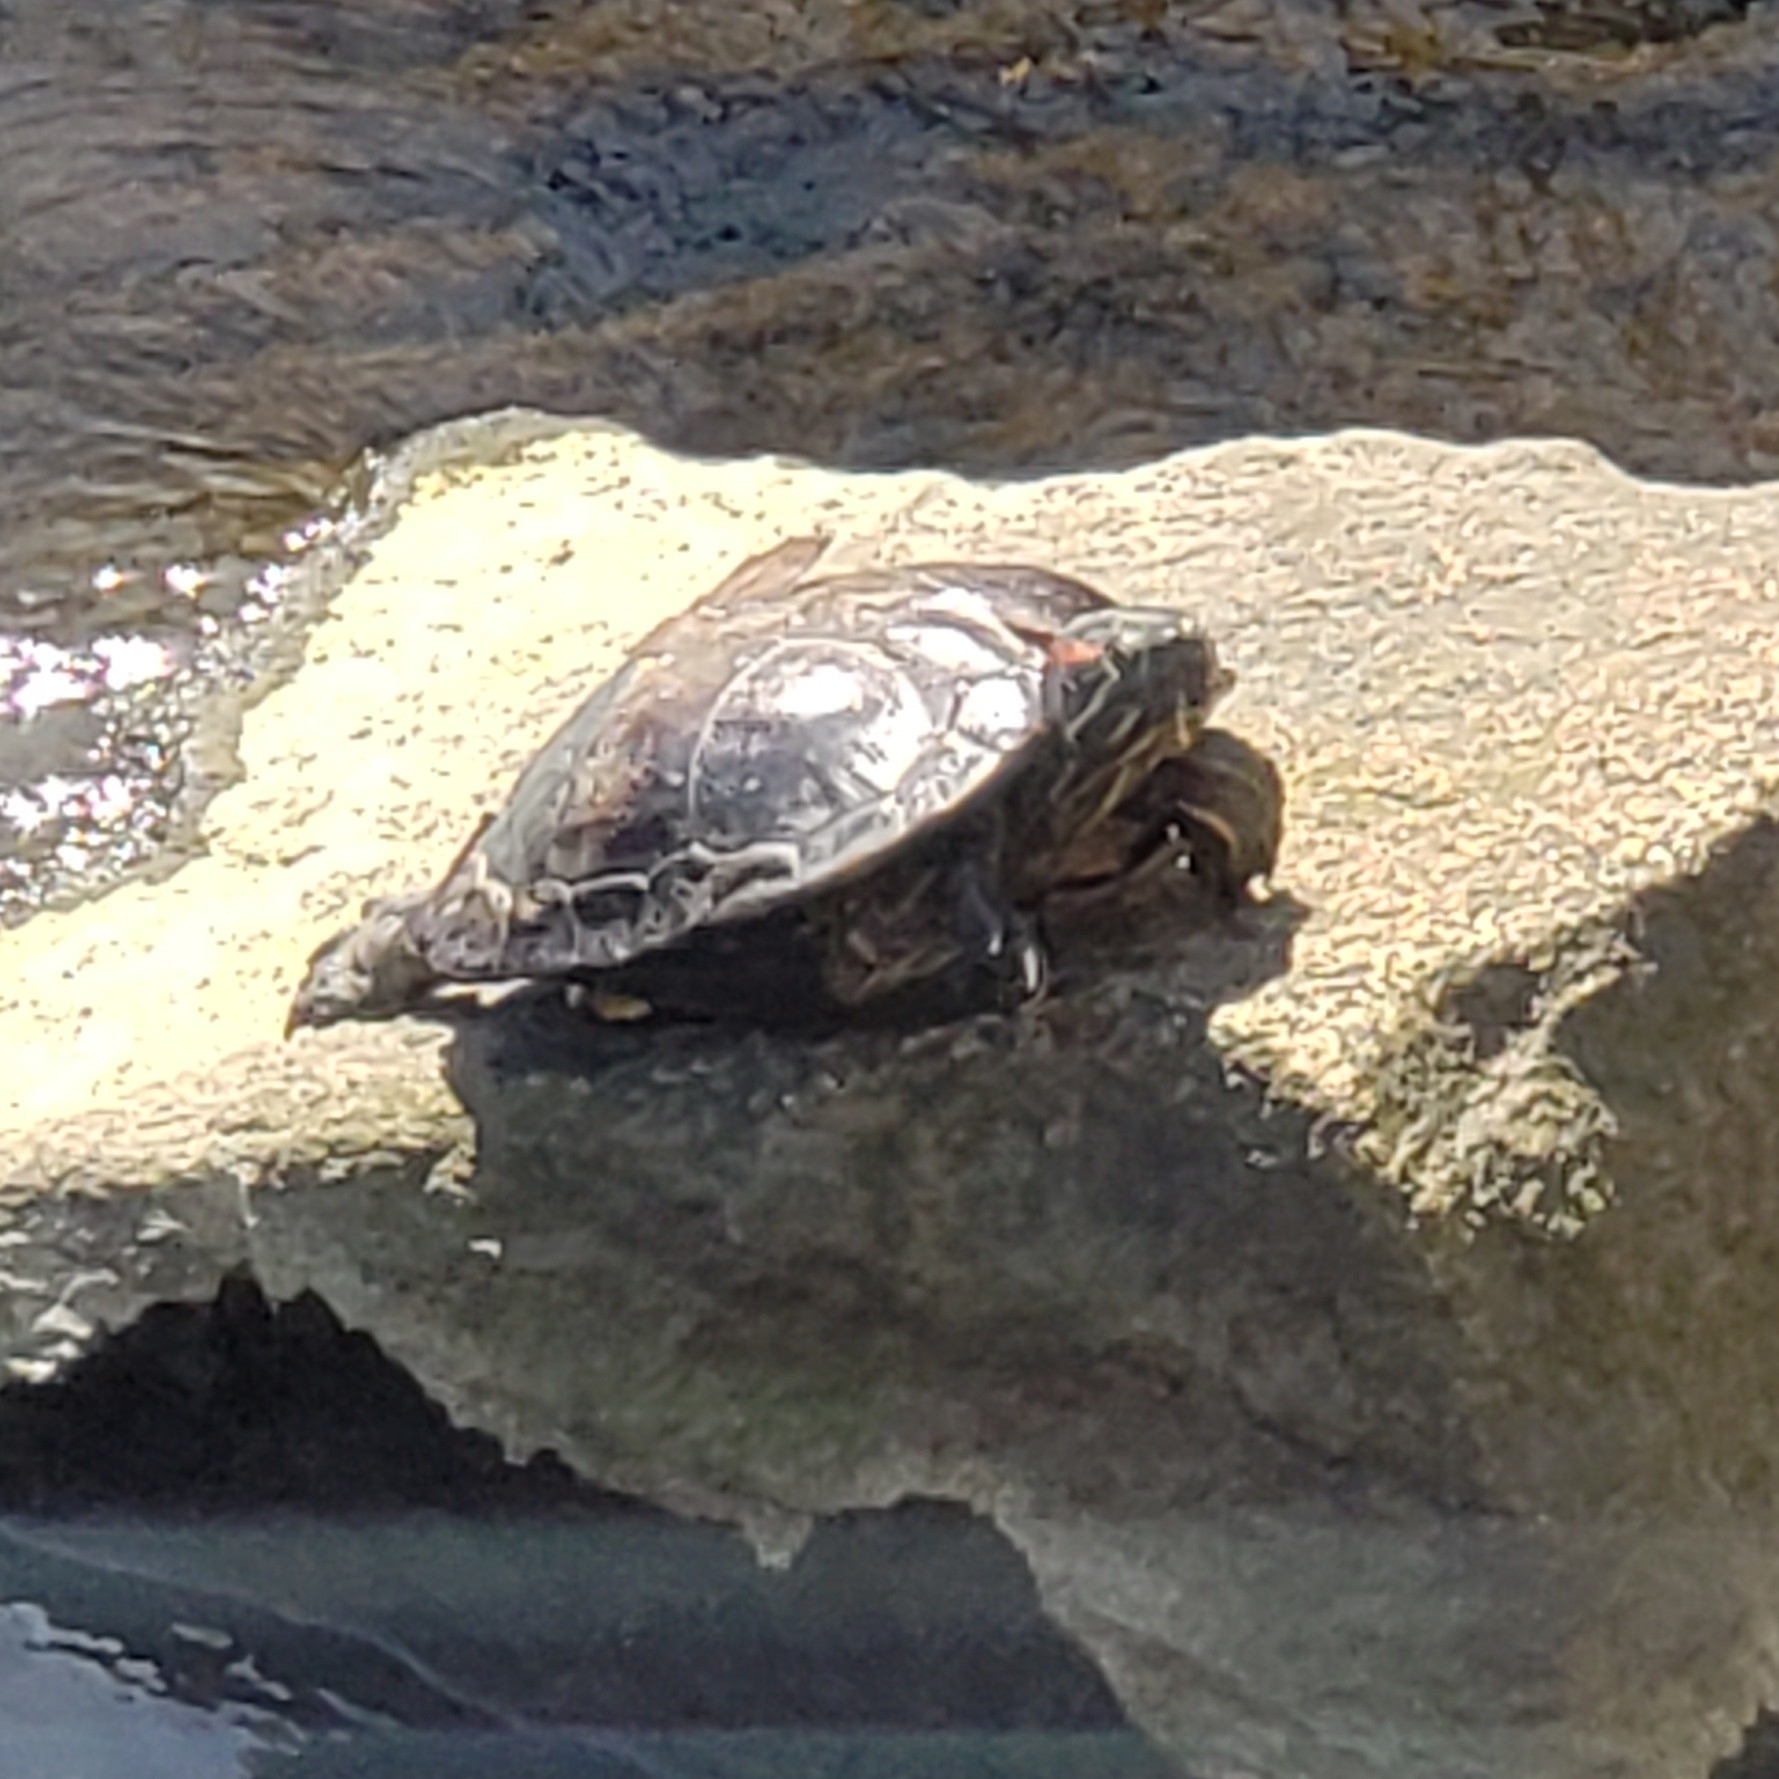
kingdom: Animalia
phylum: Chordata
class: Testudines
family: Emydidae
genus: Trachemys
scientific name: Trachemys scripta
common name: Slider
